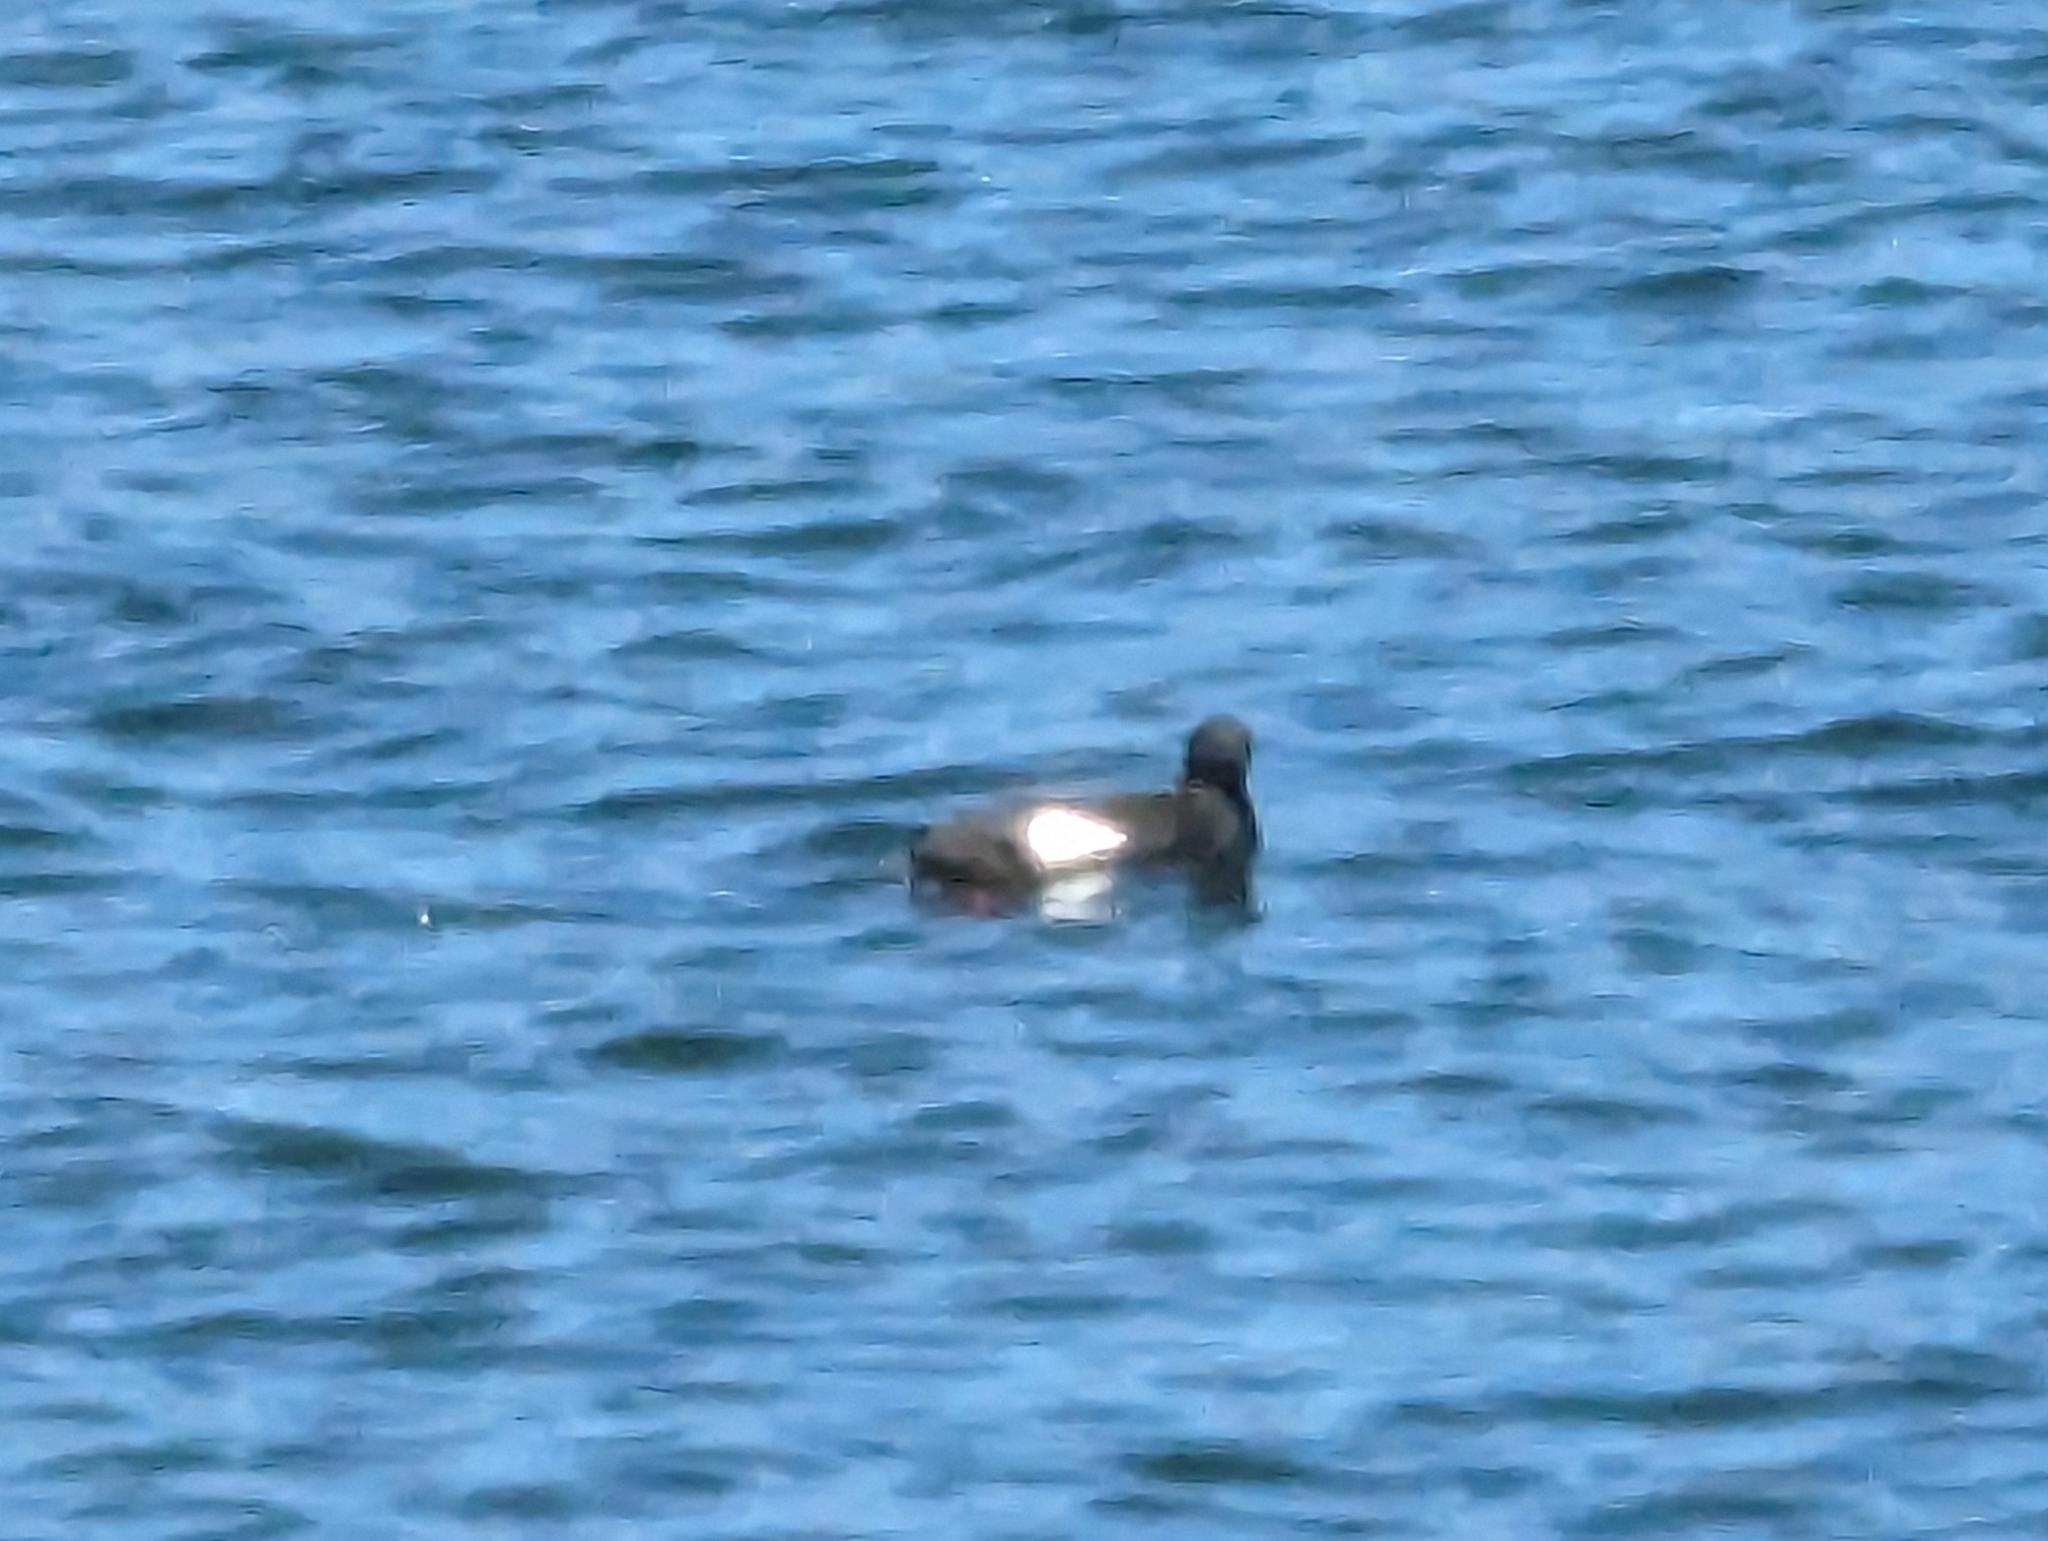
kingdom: Animalia
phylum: Chordata
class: Aves
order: Charadriiformes
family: Alcidae
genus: Cepphus
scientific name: Cepphus columba
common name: Pigeon guillemot
